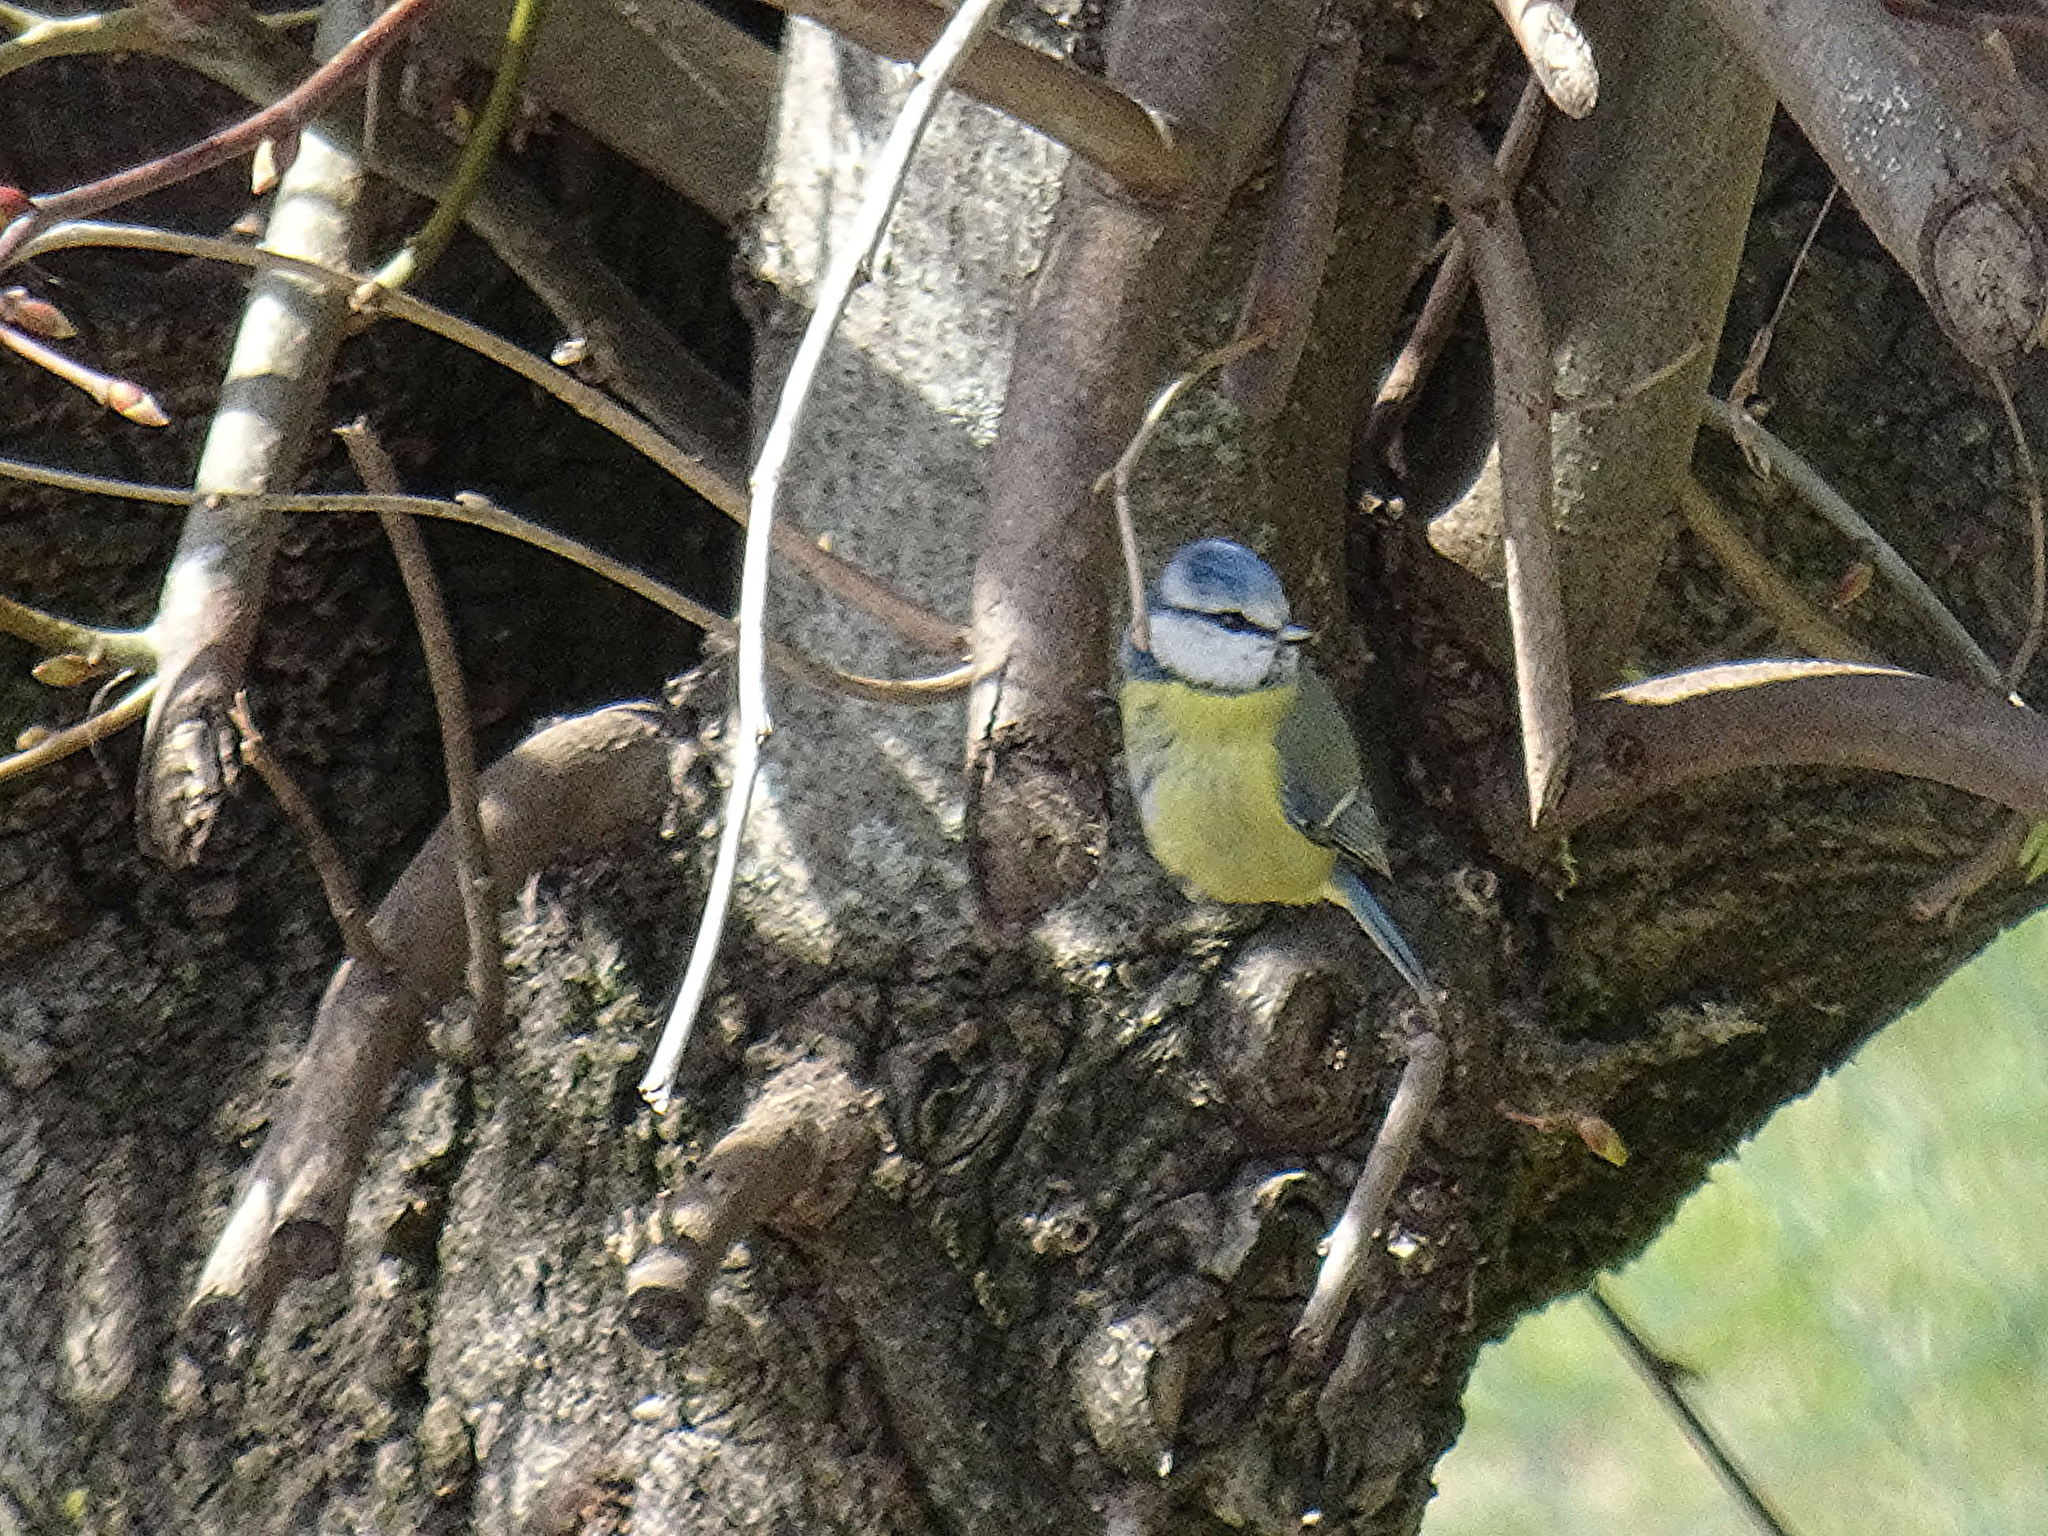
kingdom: Animalia
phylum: Chordata
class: Aves
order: Passeriformes
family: Paridae
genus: Cyanistes
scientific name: Cyanistes caeruleus
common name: Eurasian blue tit
